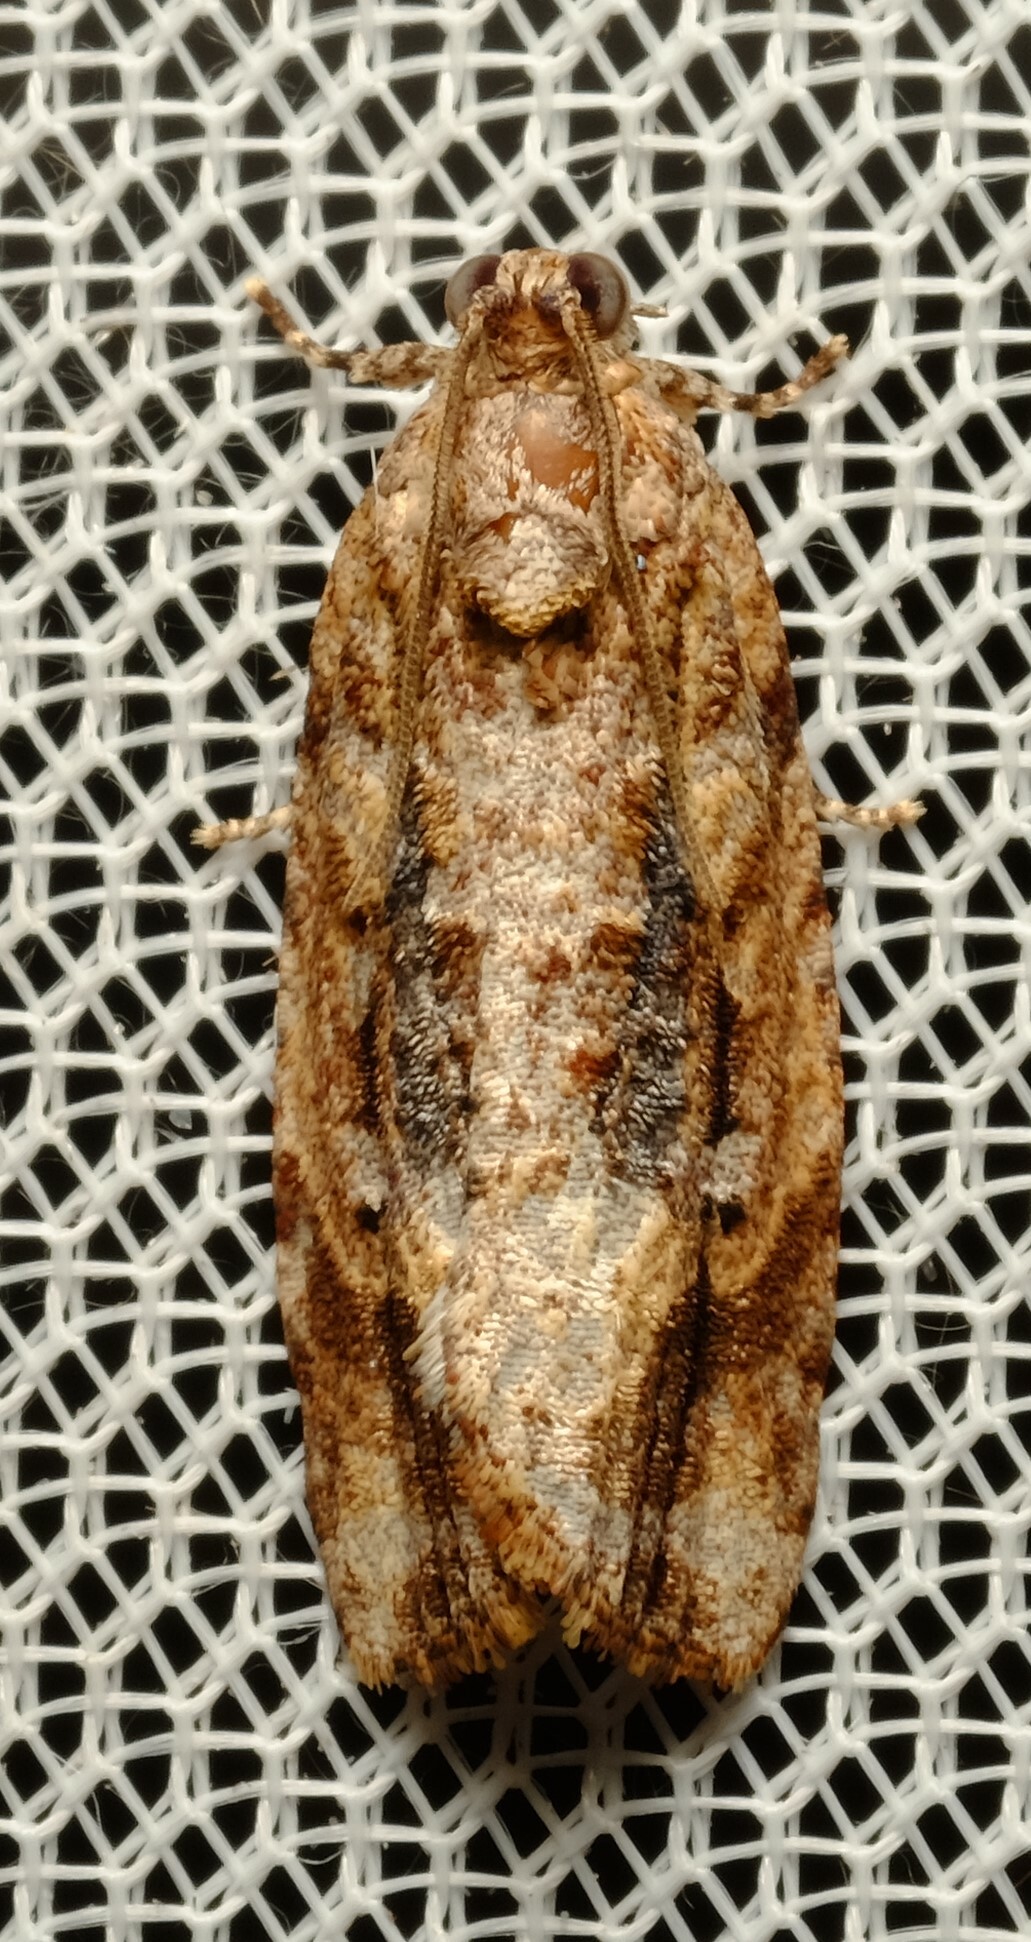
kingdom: Animalia
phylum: Arthropoda
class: Insecta
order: Lepidoptera
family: Tortricidae
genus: Thrincophora
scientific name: Thrincophora lignigerana
